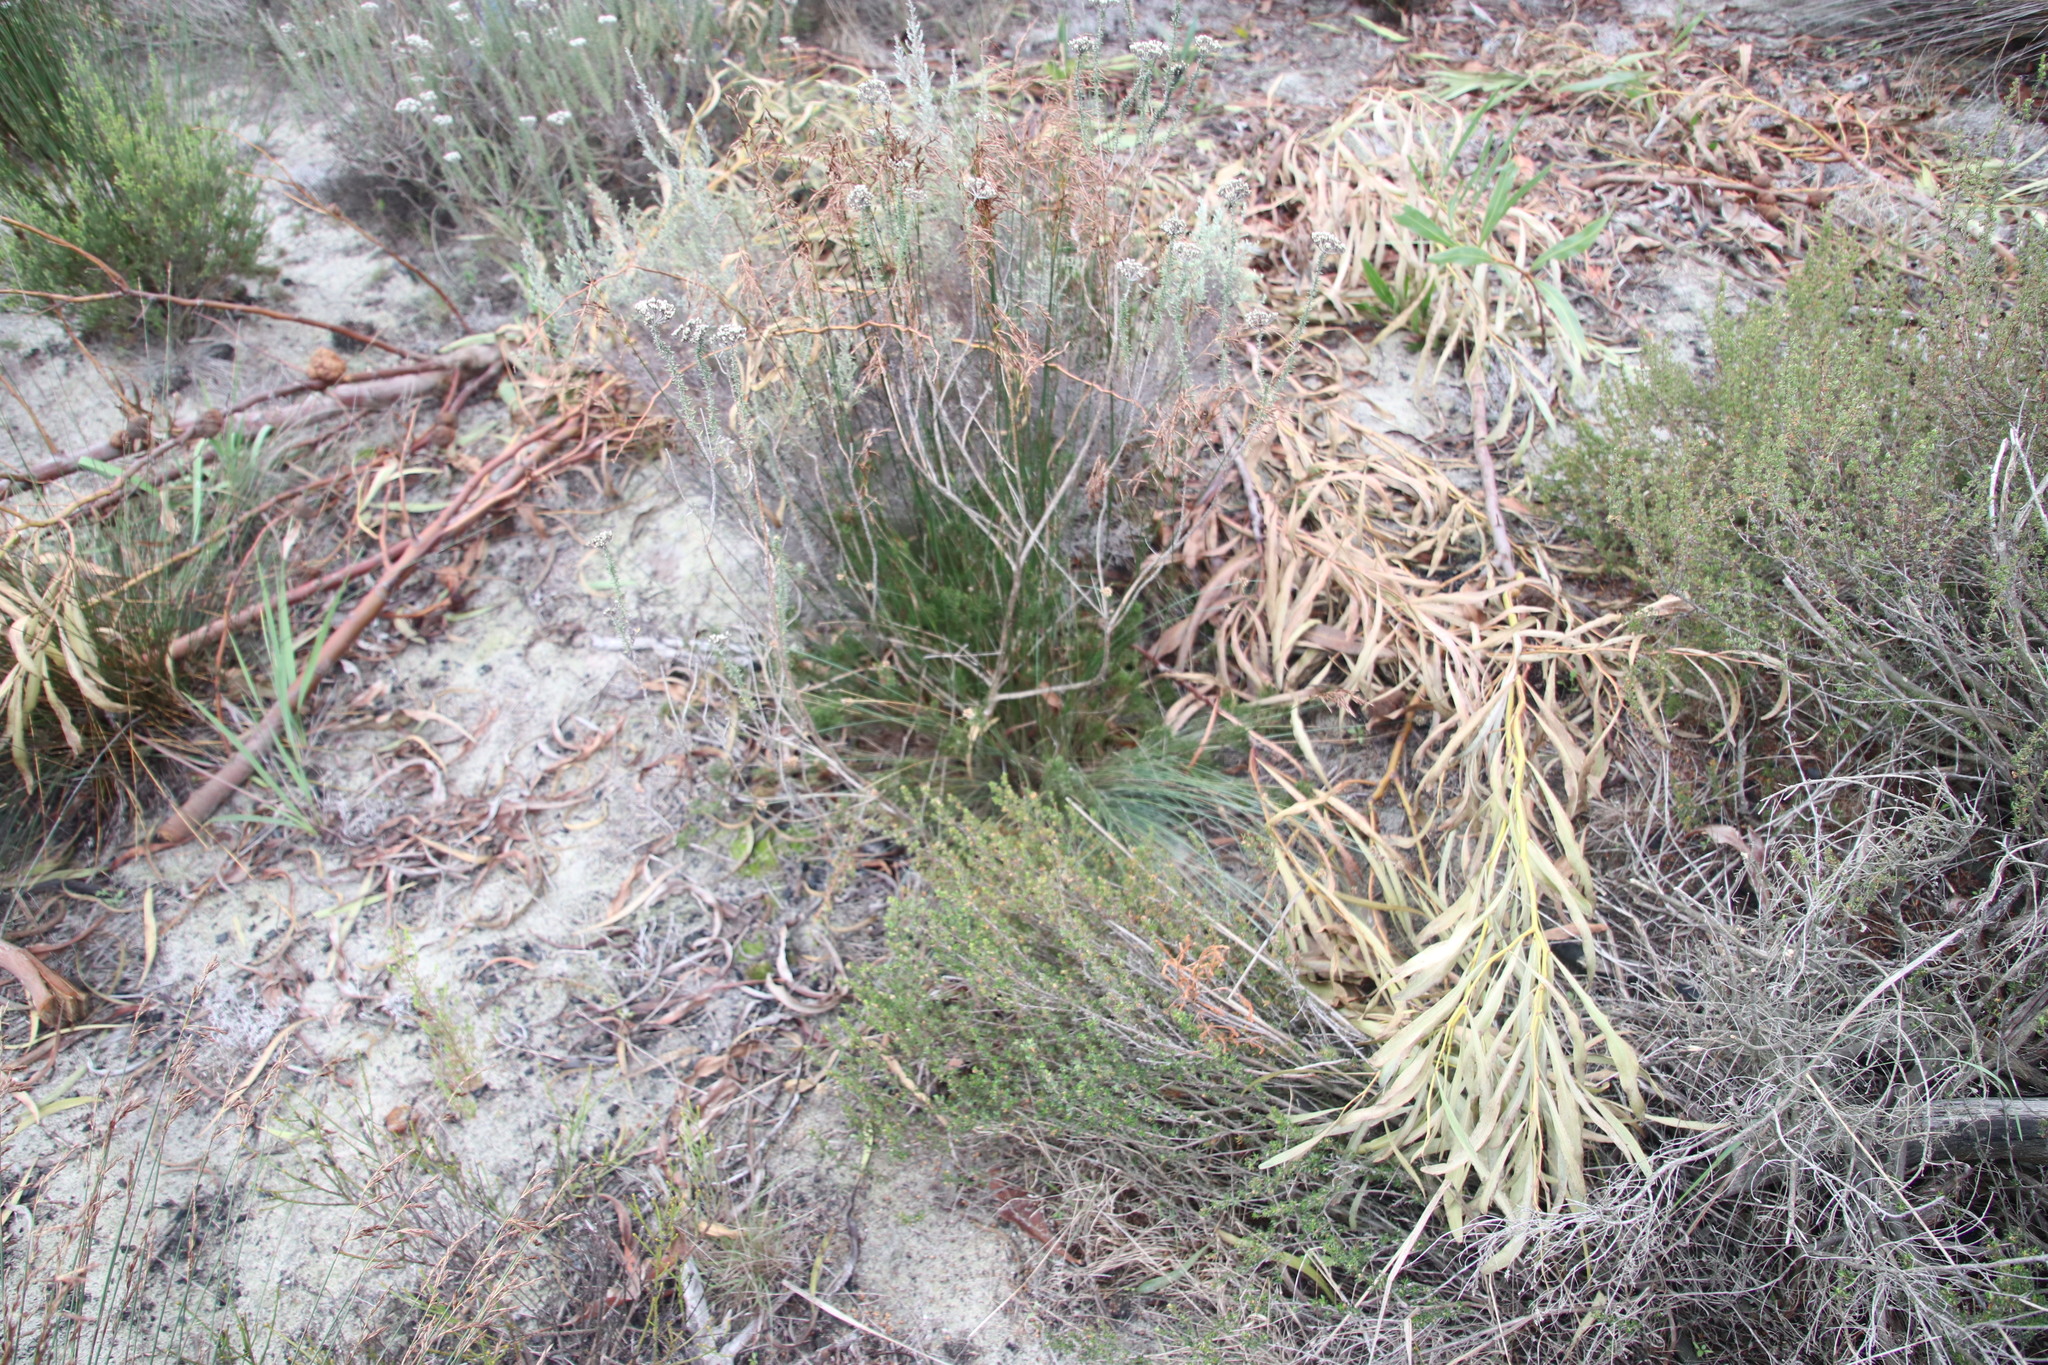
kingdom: Plantae
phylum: Tracheophyta
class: Liliopsida
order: Poales
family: Cyperaceae
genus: Ficinia
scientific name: Ficinia paradoxa
